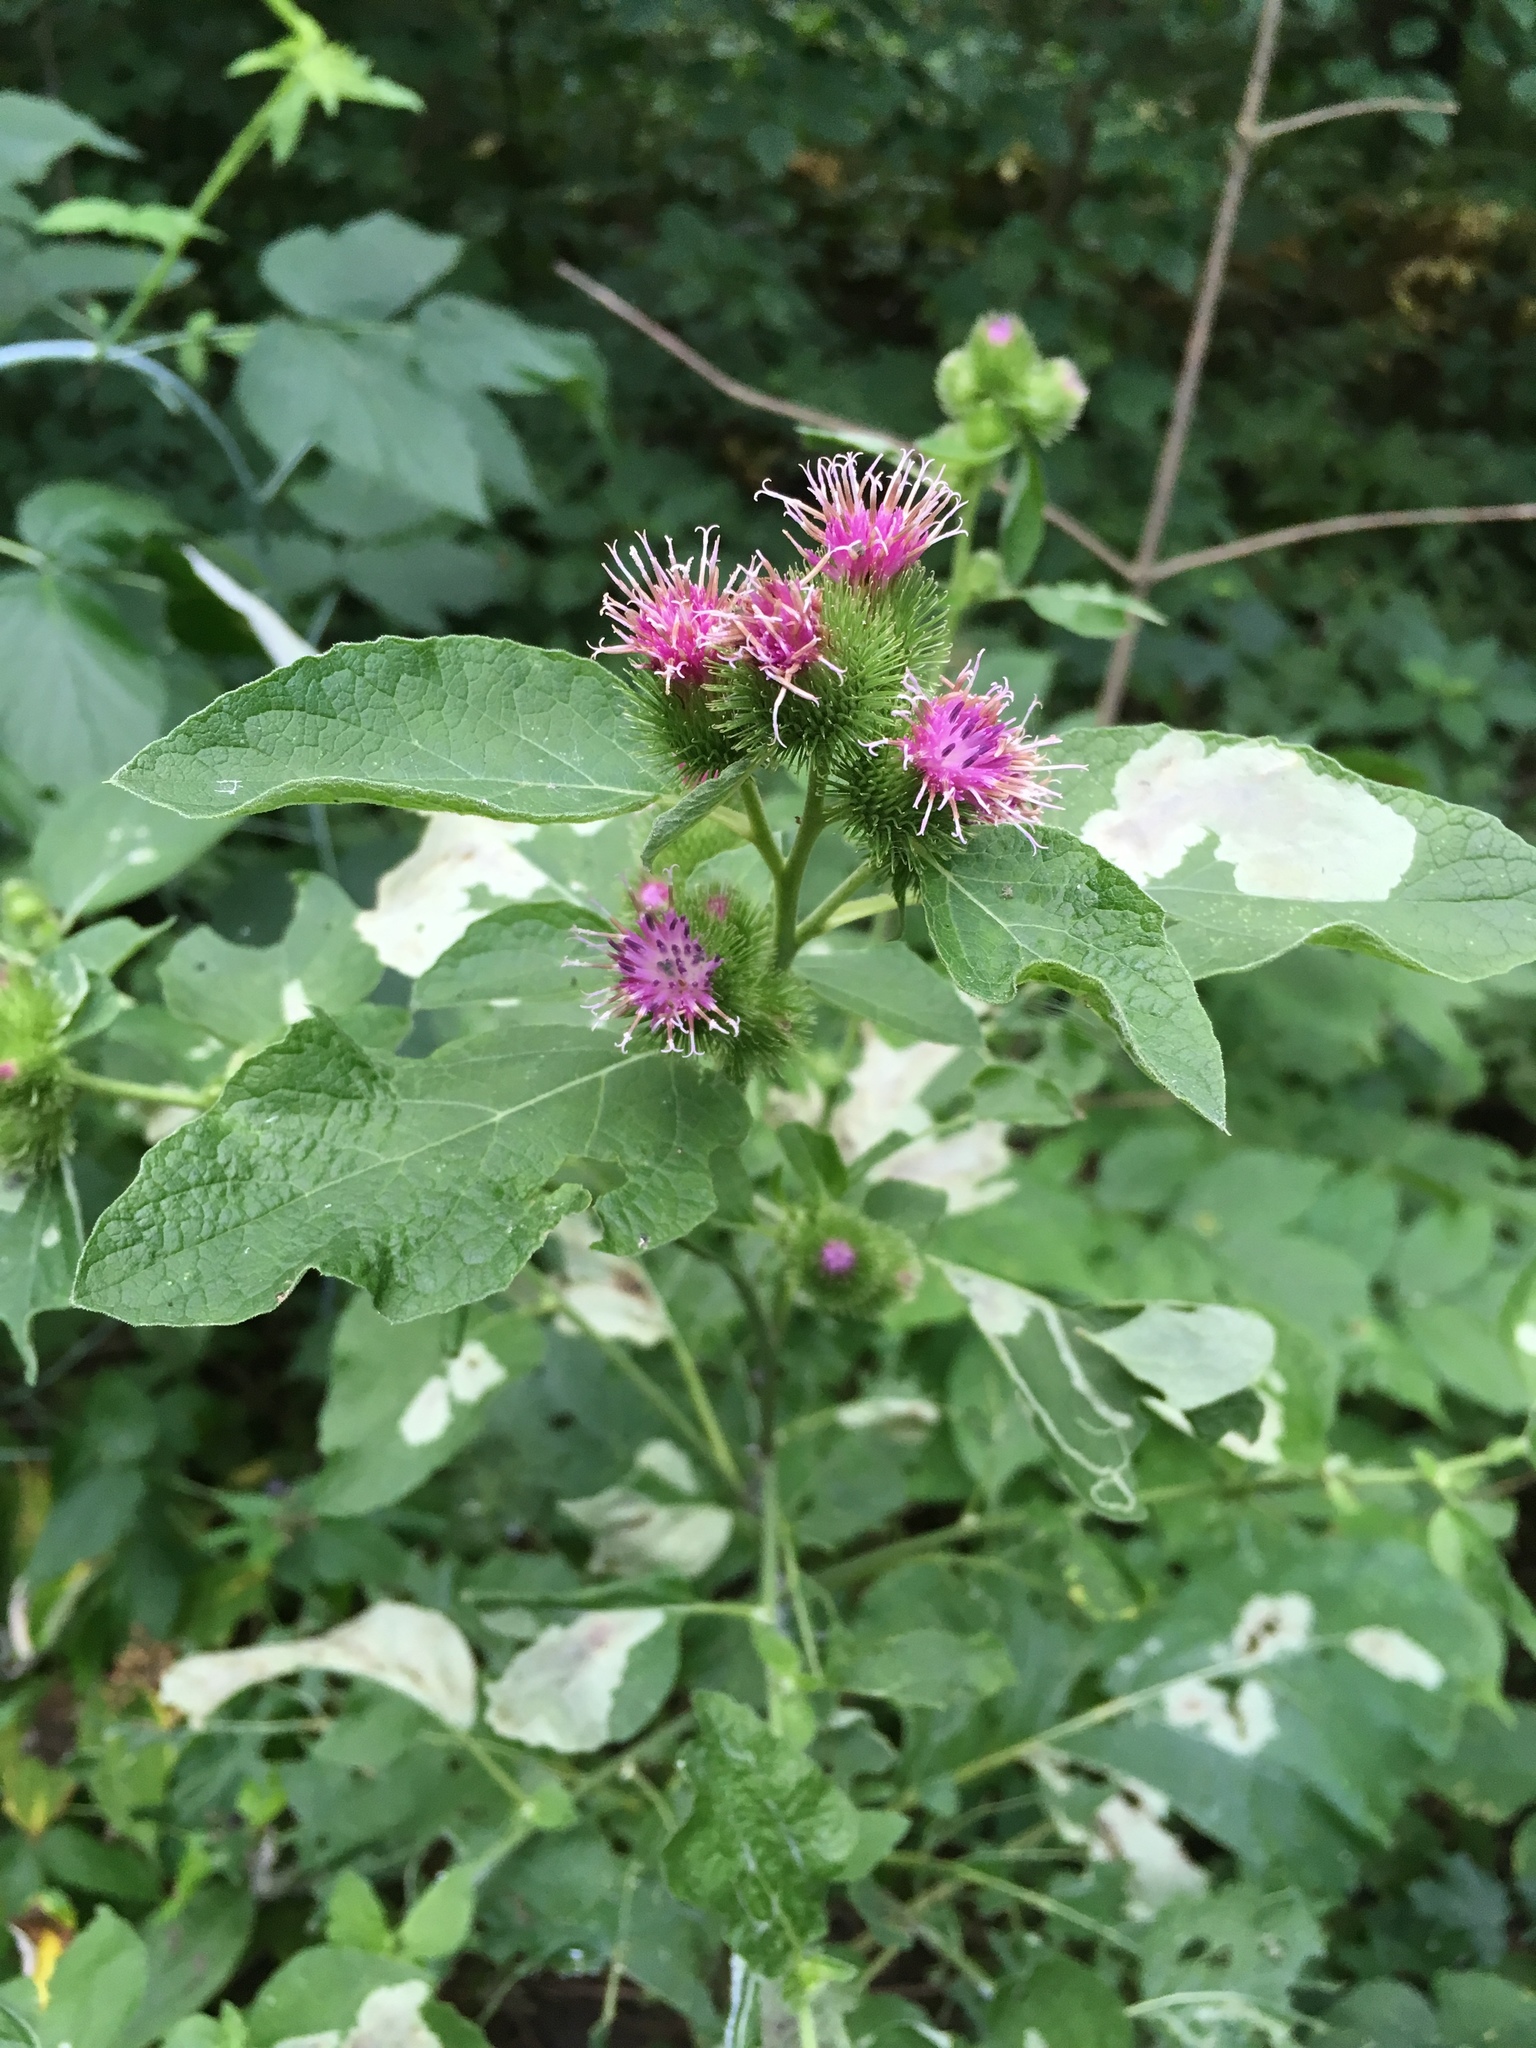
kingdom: Plantae
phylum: Tracheophyta
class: Magnoliopsida
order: Asterales
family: Asteraceae
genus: Arctium
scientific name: Arctium lappa
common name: Greater burdock
